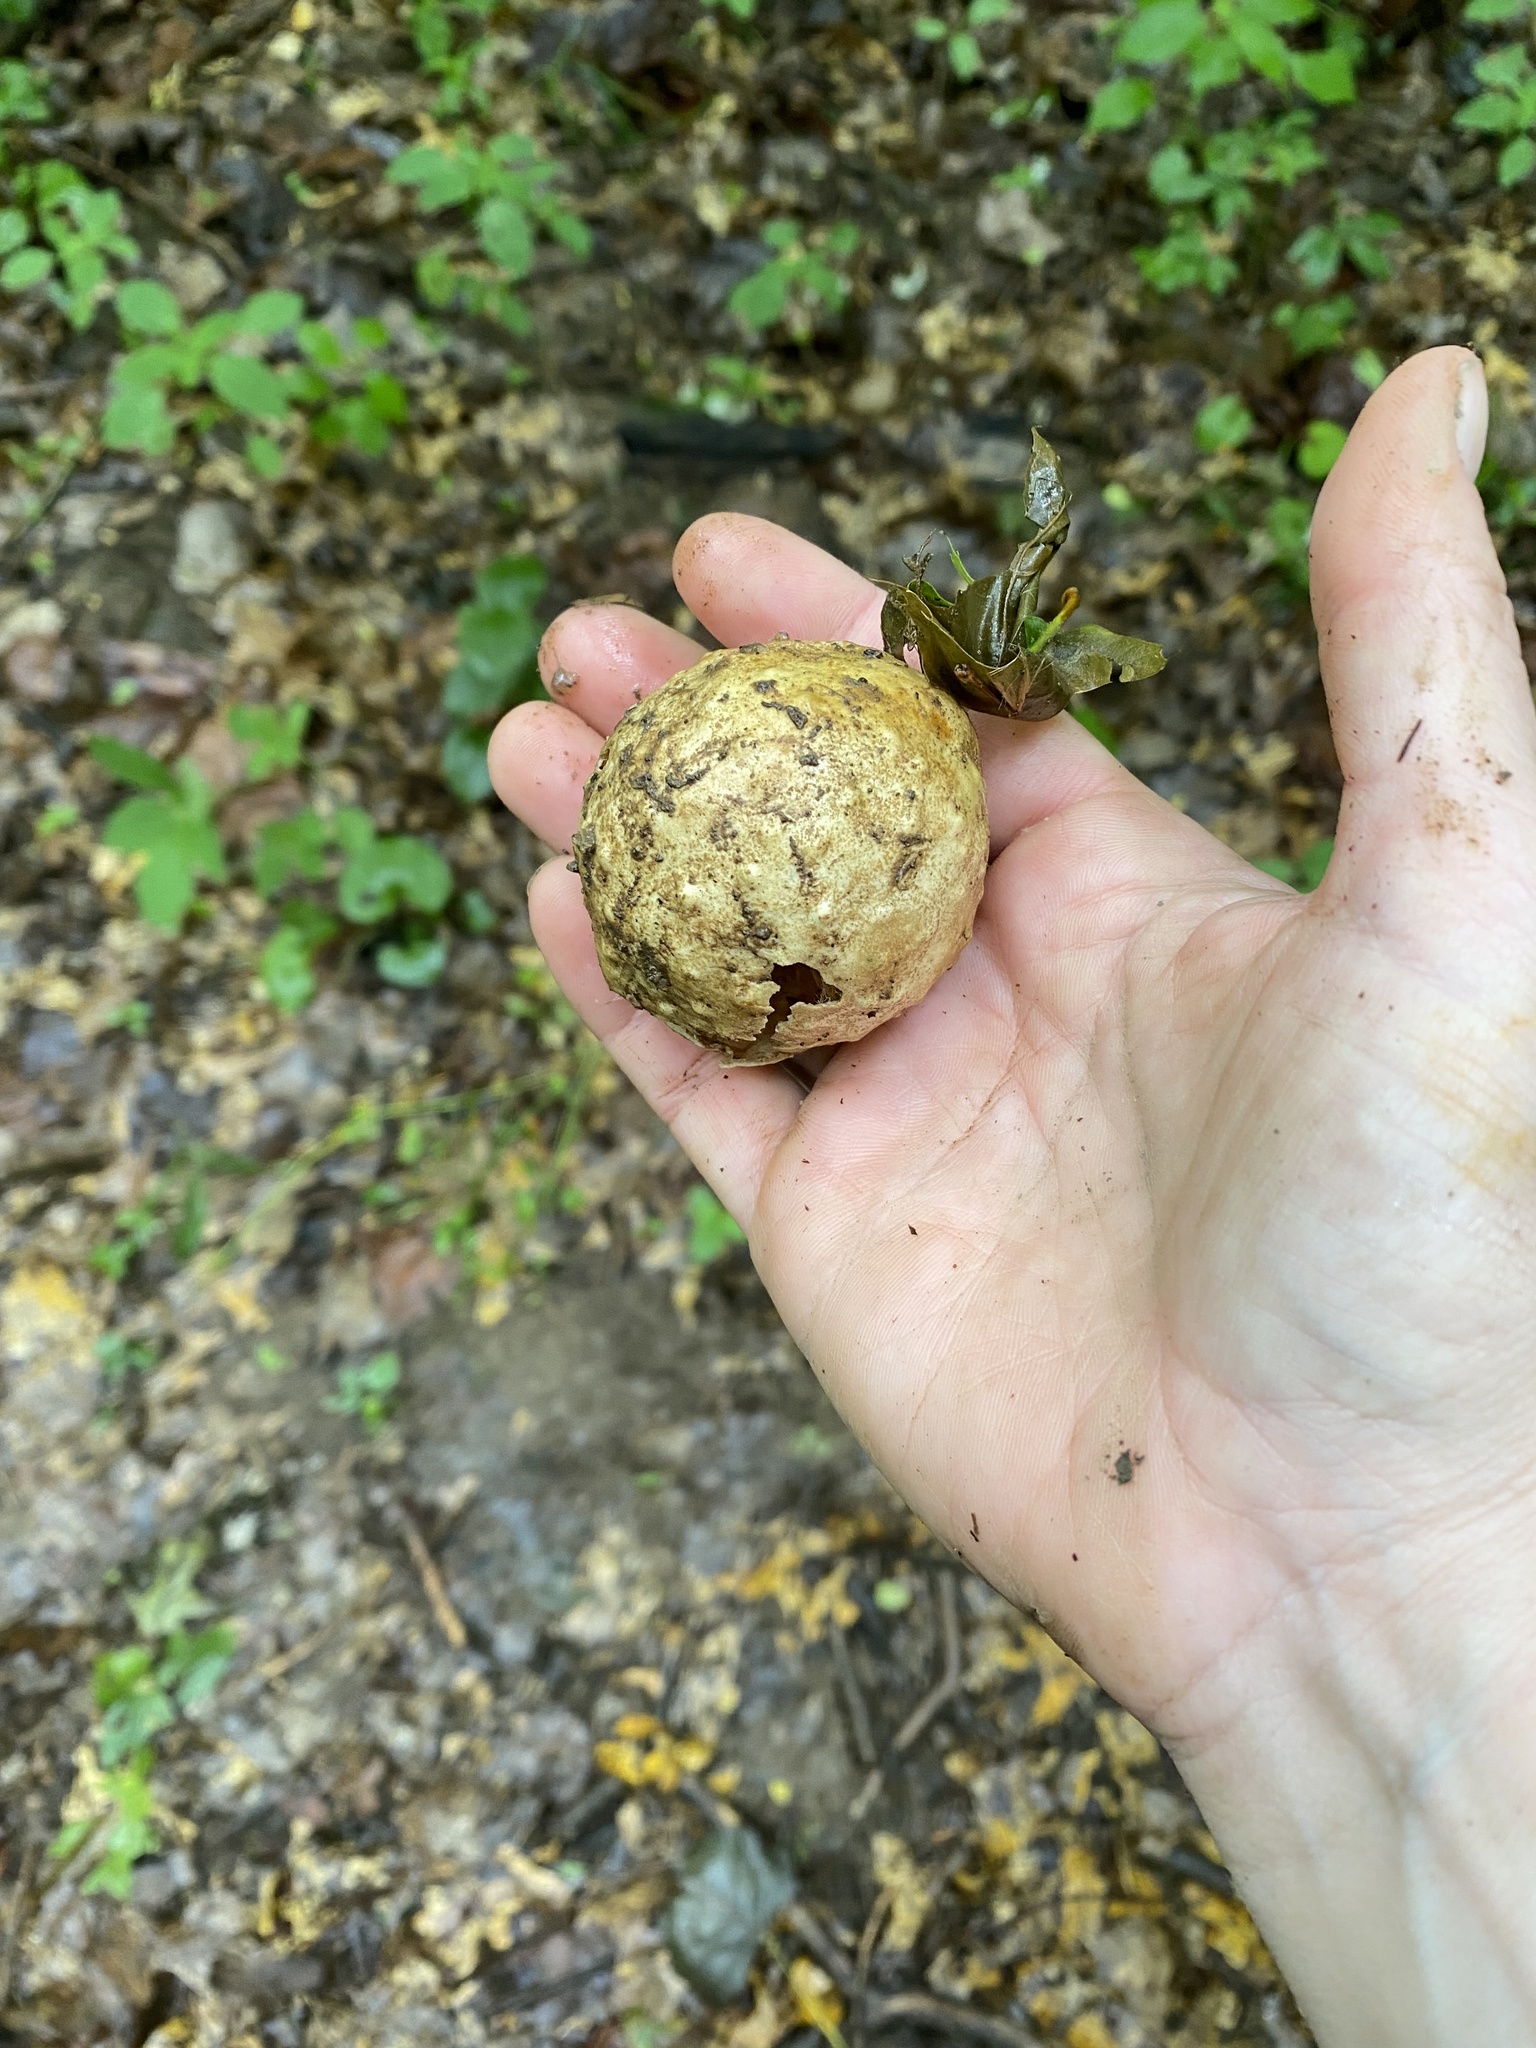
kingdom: Animalia
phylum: Arthropoda
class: Insecta
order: Hymenoptera
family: Cynipidae
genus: Amphibolips
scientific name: Amphibolips
